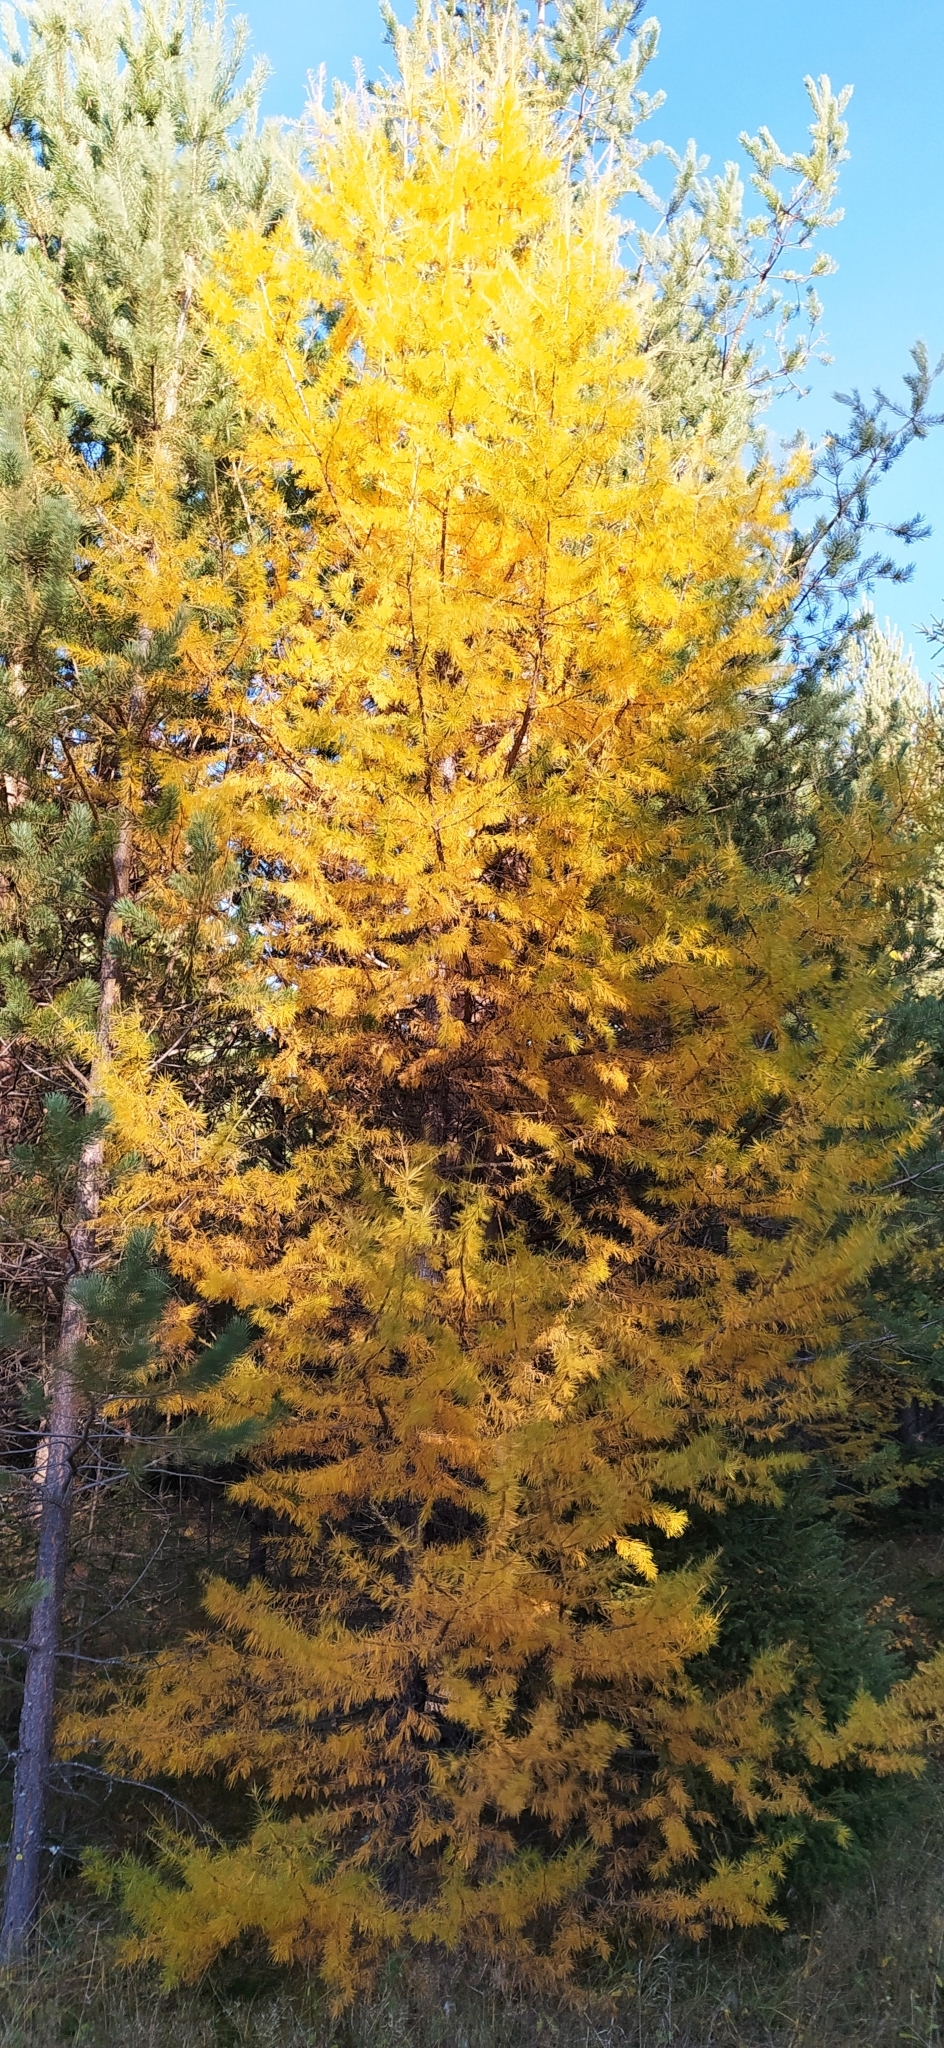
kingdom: Plantae
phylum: Tracheophyta
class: Pinopsida
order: Pinales
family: Pinaceae
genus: Larix
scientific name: Larix sibirica
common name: Siberian larch
